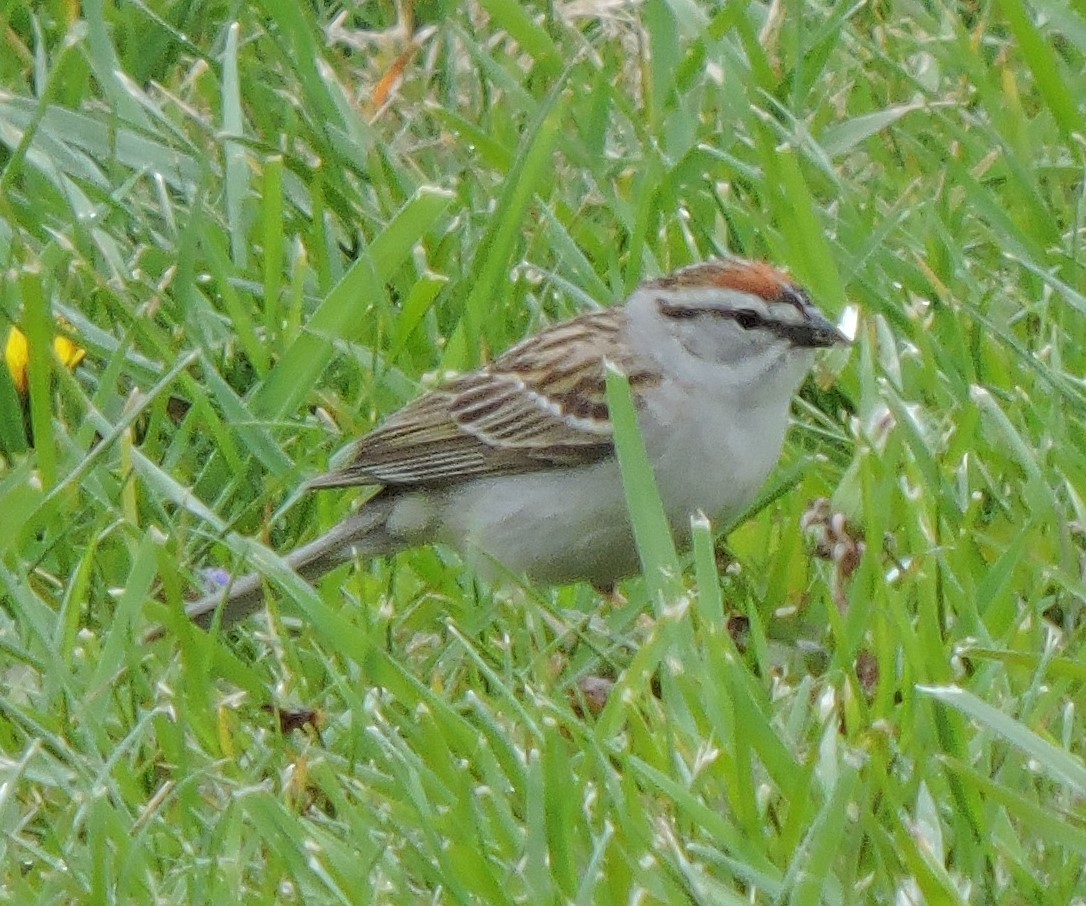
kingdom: Animalia
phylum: Chordata
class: Aves
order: Passeriformes
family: Passerellidae
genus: Spizella
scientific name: Spizella passerina
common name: Chipping sparrow
